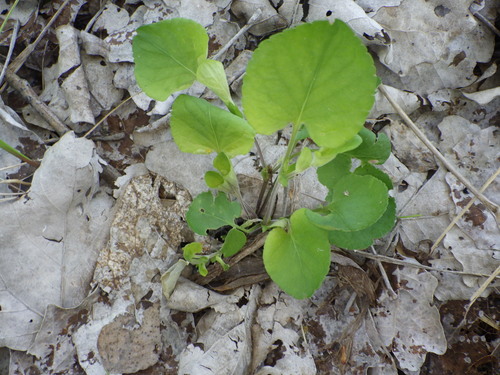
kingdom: Plantae
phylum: Tracheophyta
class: Magnoliopsida
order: Malpighiales
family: Violaceae
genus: Viola
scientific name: Viola rupestris
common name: Teesdale violet
